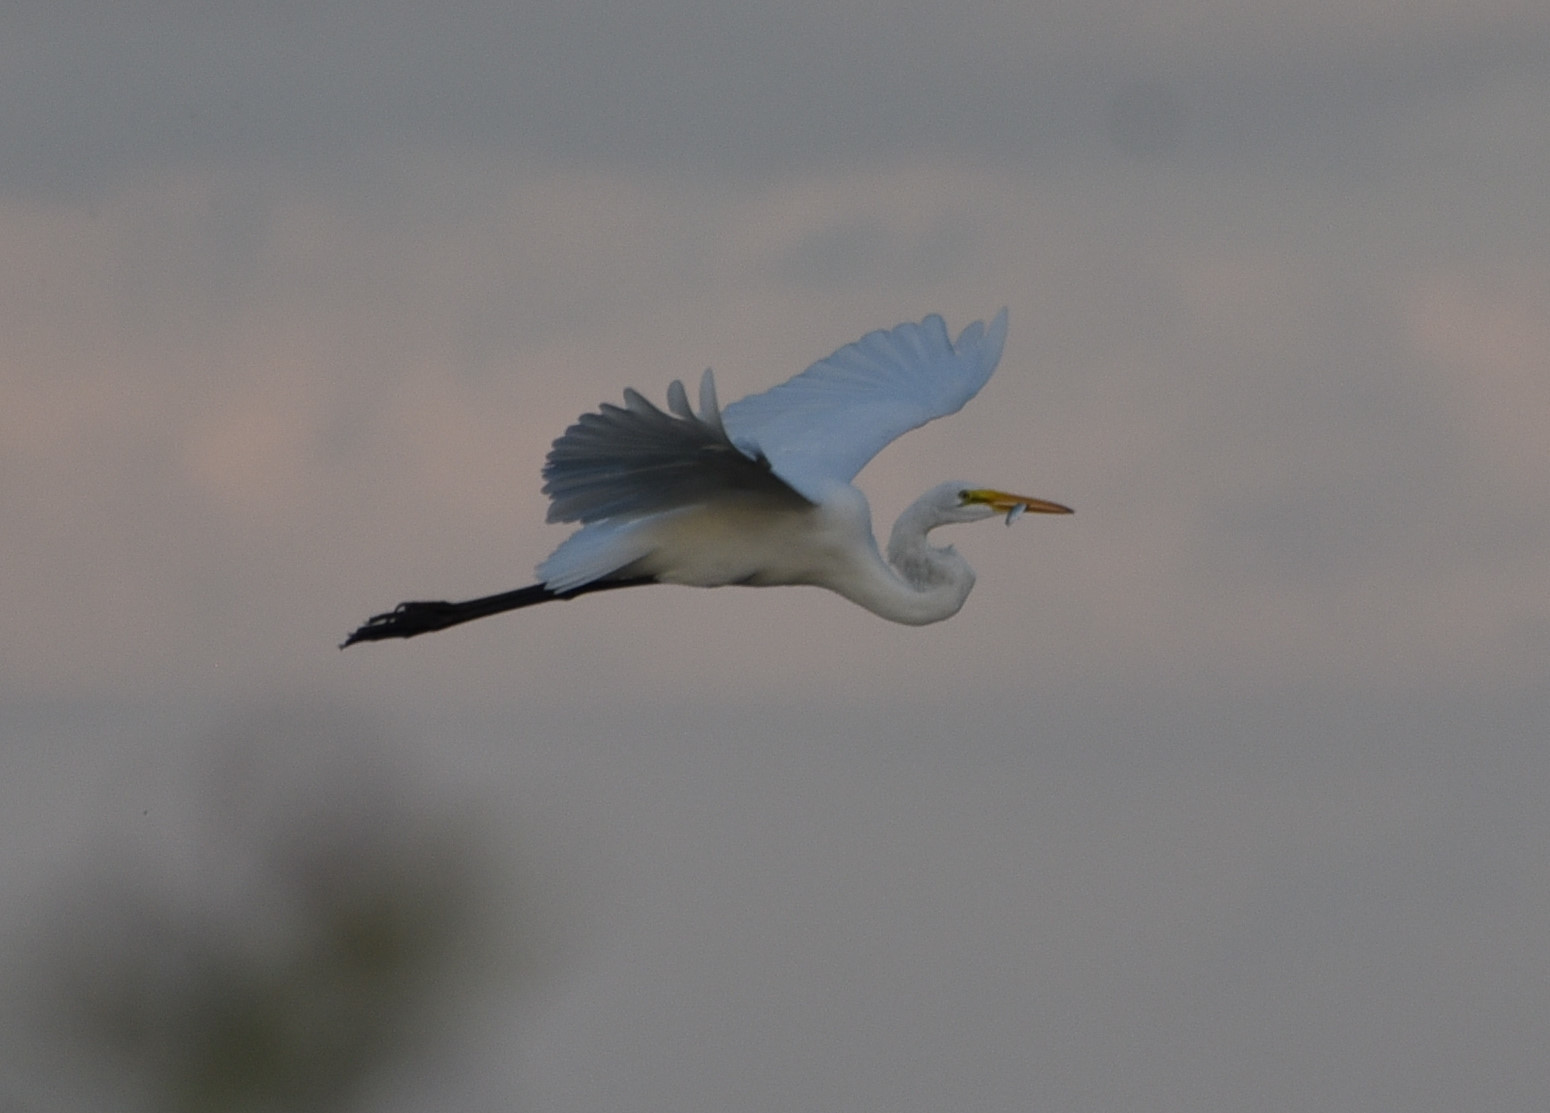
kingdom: Animalia
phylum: Chordata
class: Aves
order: Pelecaniformes
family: Ardeidae
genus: Ardea
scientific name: Ardea alba
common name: Great egret
